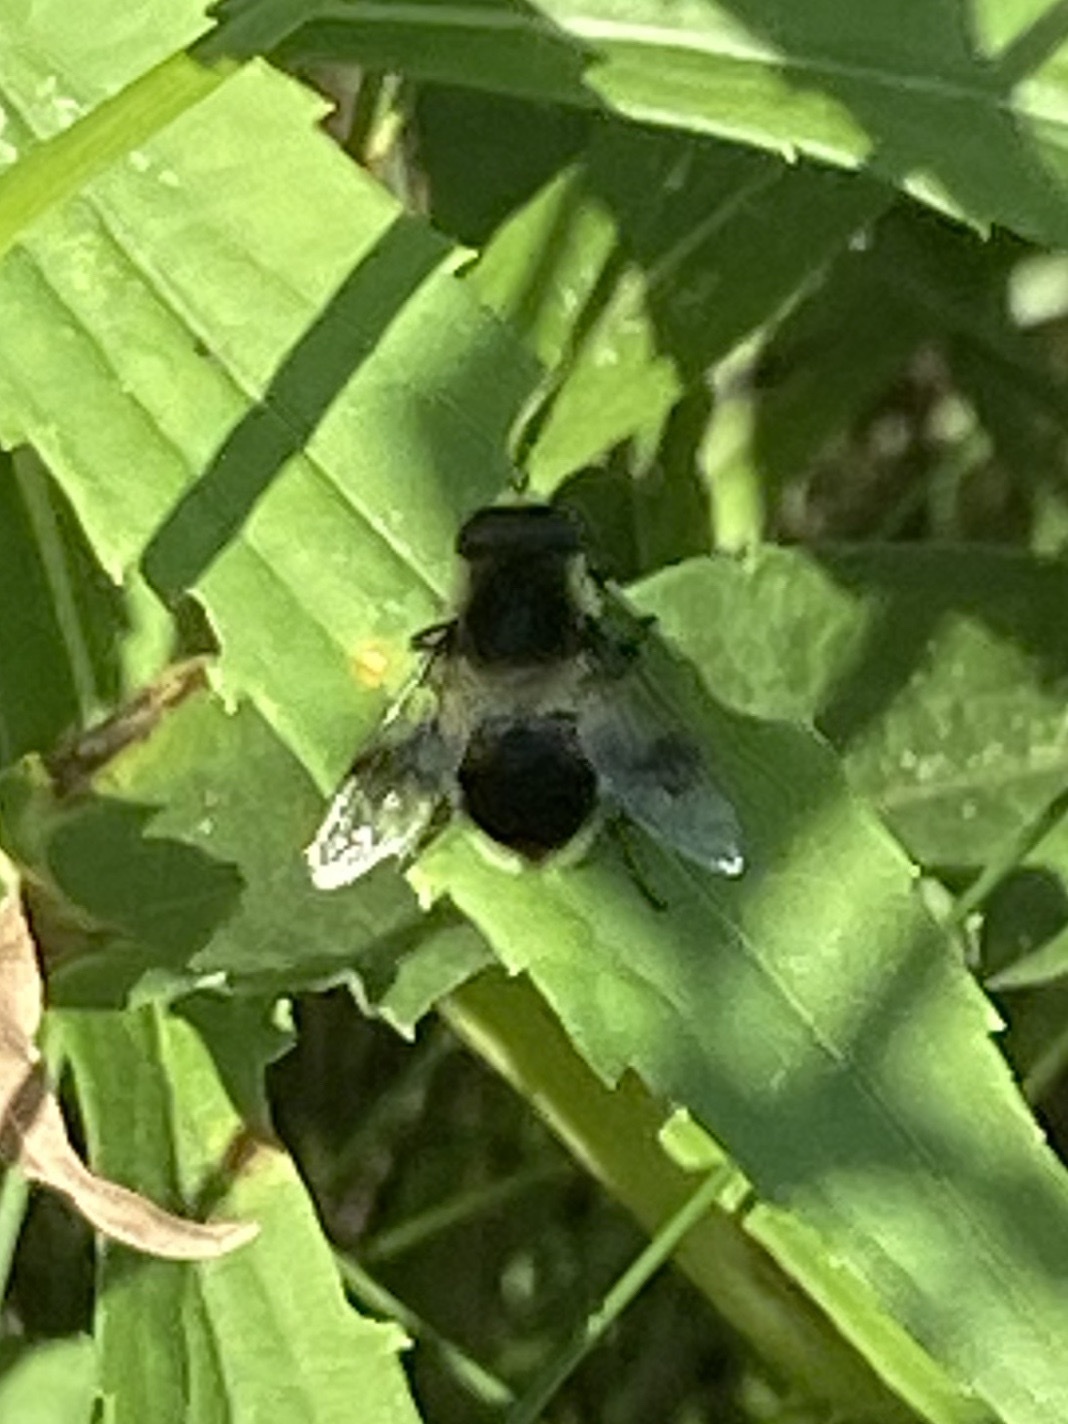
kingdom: Animalia
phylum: Arthropoda
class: Insecta
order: Diptera
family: Syrphidae
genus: Eristalis
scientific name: Eristalis anthophorina
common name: Orange-spotted drone fly
